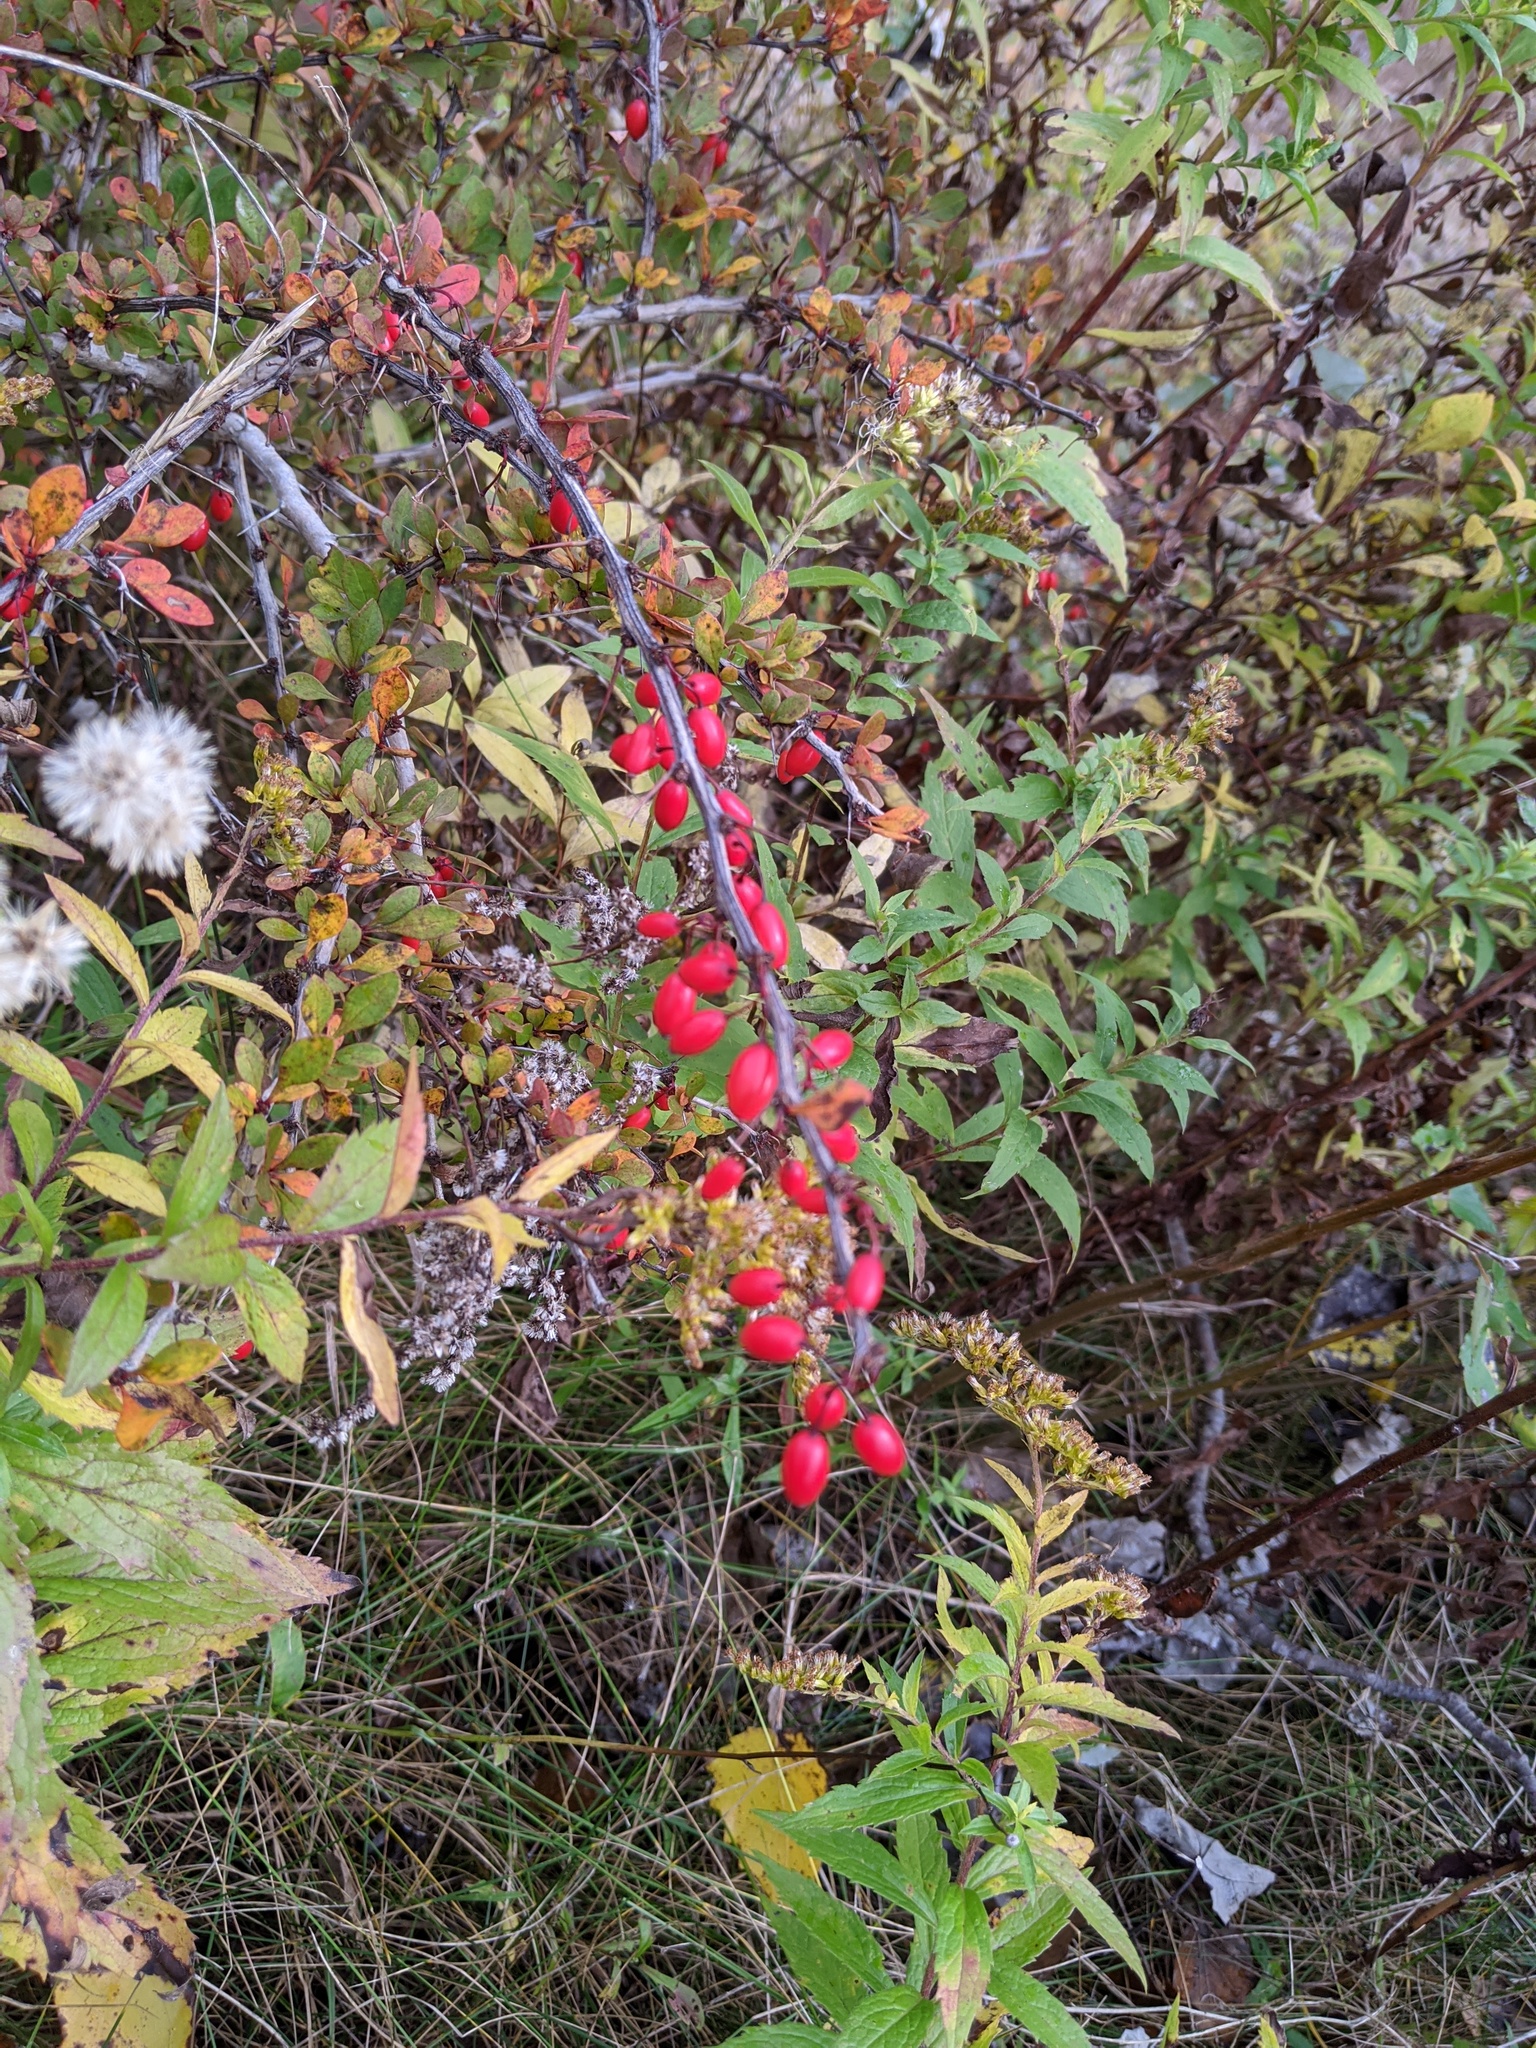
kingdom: Plantae
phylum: Tracheophyta
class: Magnoliopsida
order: Ranunculales
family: Berberidaceae
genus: Berberis
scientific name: Berberis thunbergii
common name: Japanese barberry
